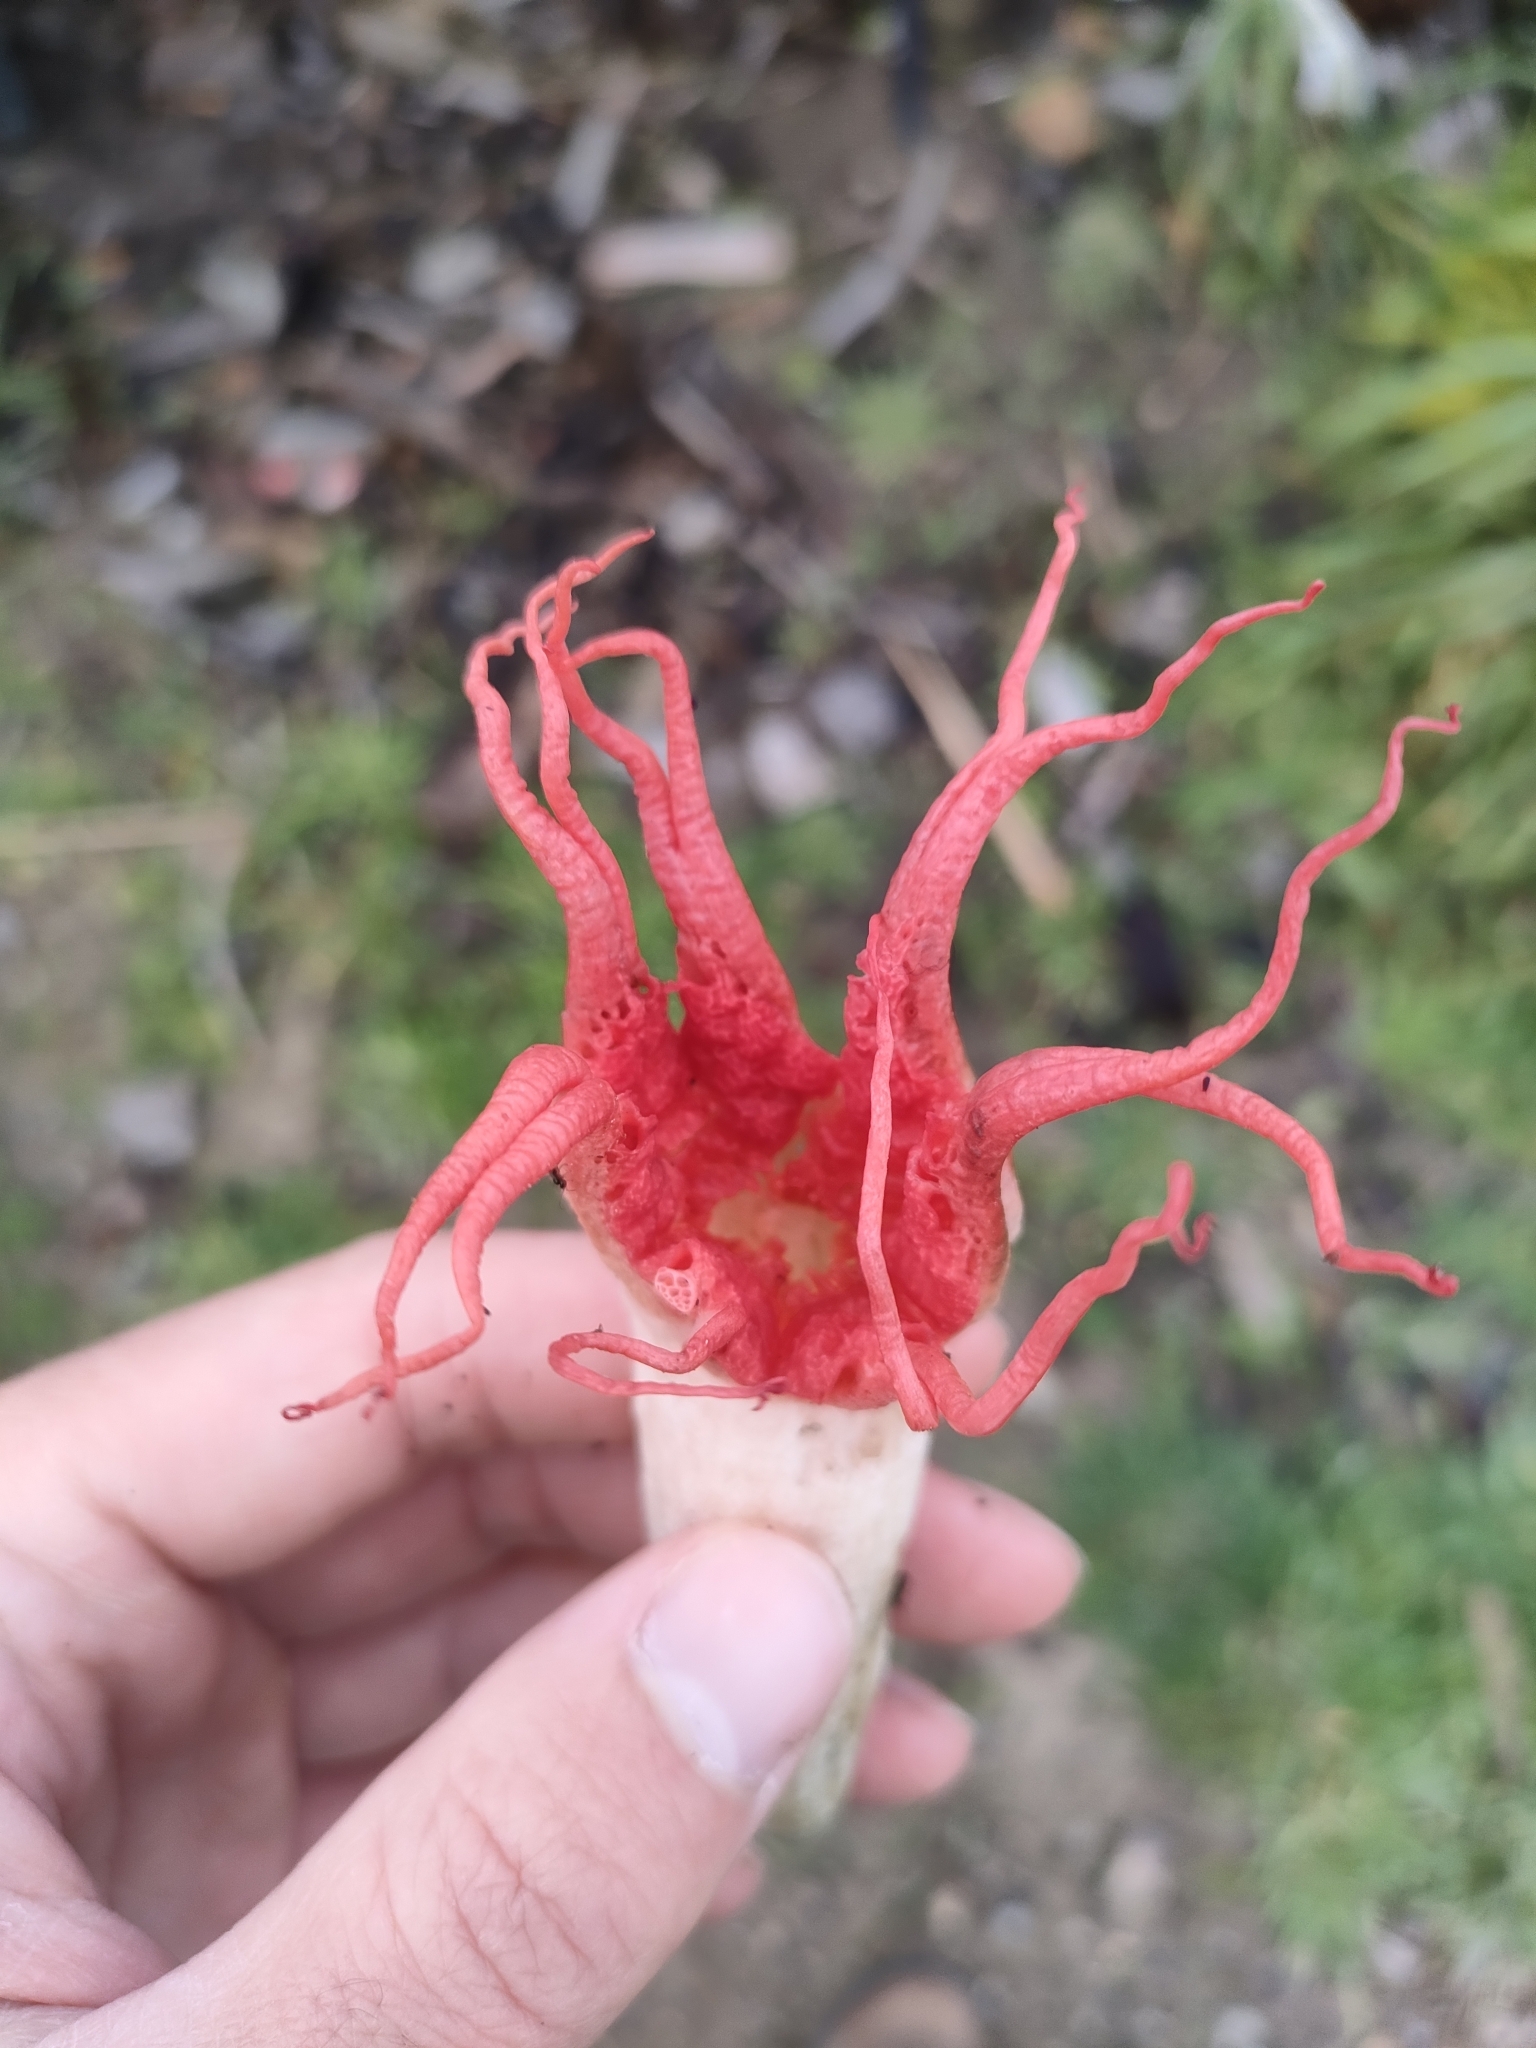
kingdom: Fungi
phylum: Basidiomycota
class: Agaricomycetes
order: Phallales
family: Phallaceae
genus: Aseroe
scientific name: Aseroe rubra
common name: Starfish fungus
